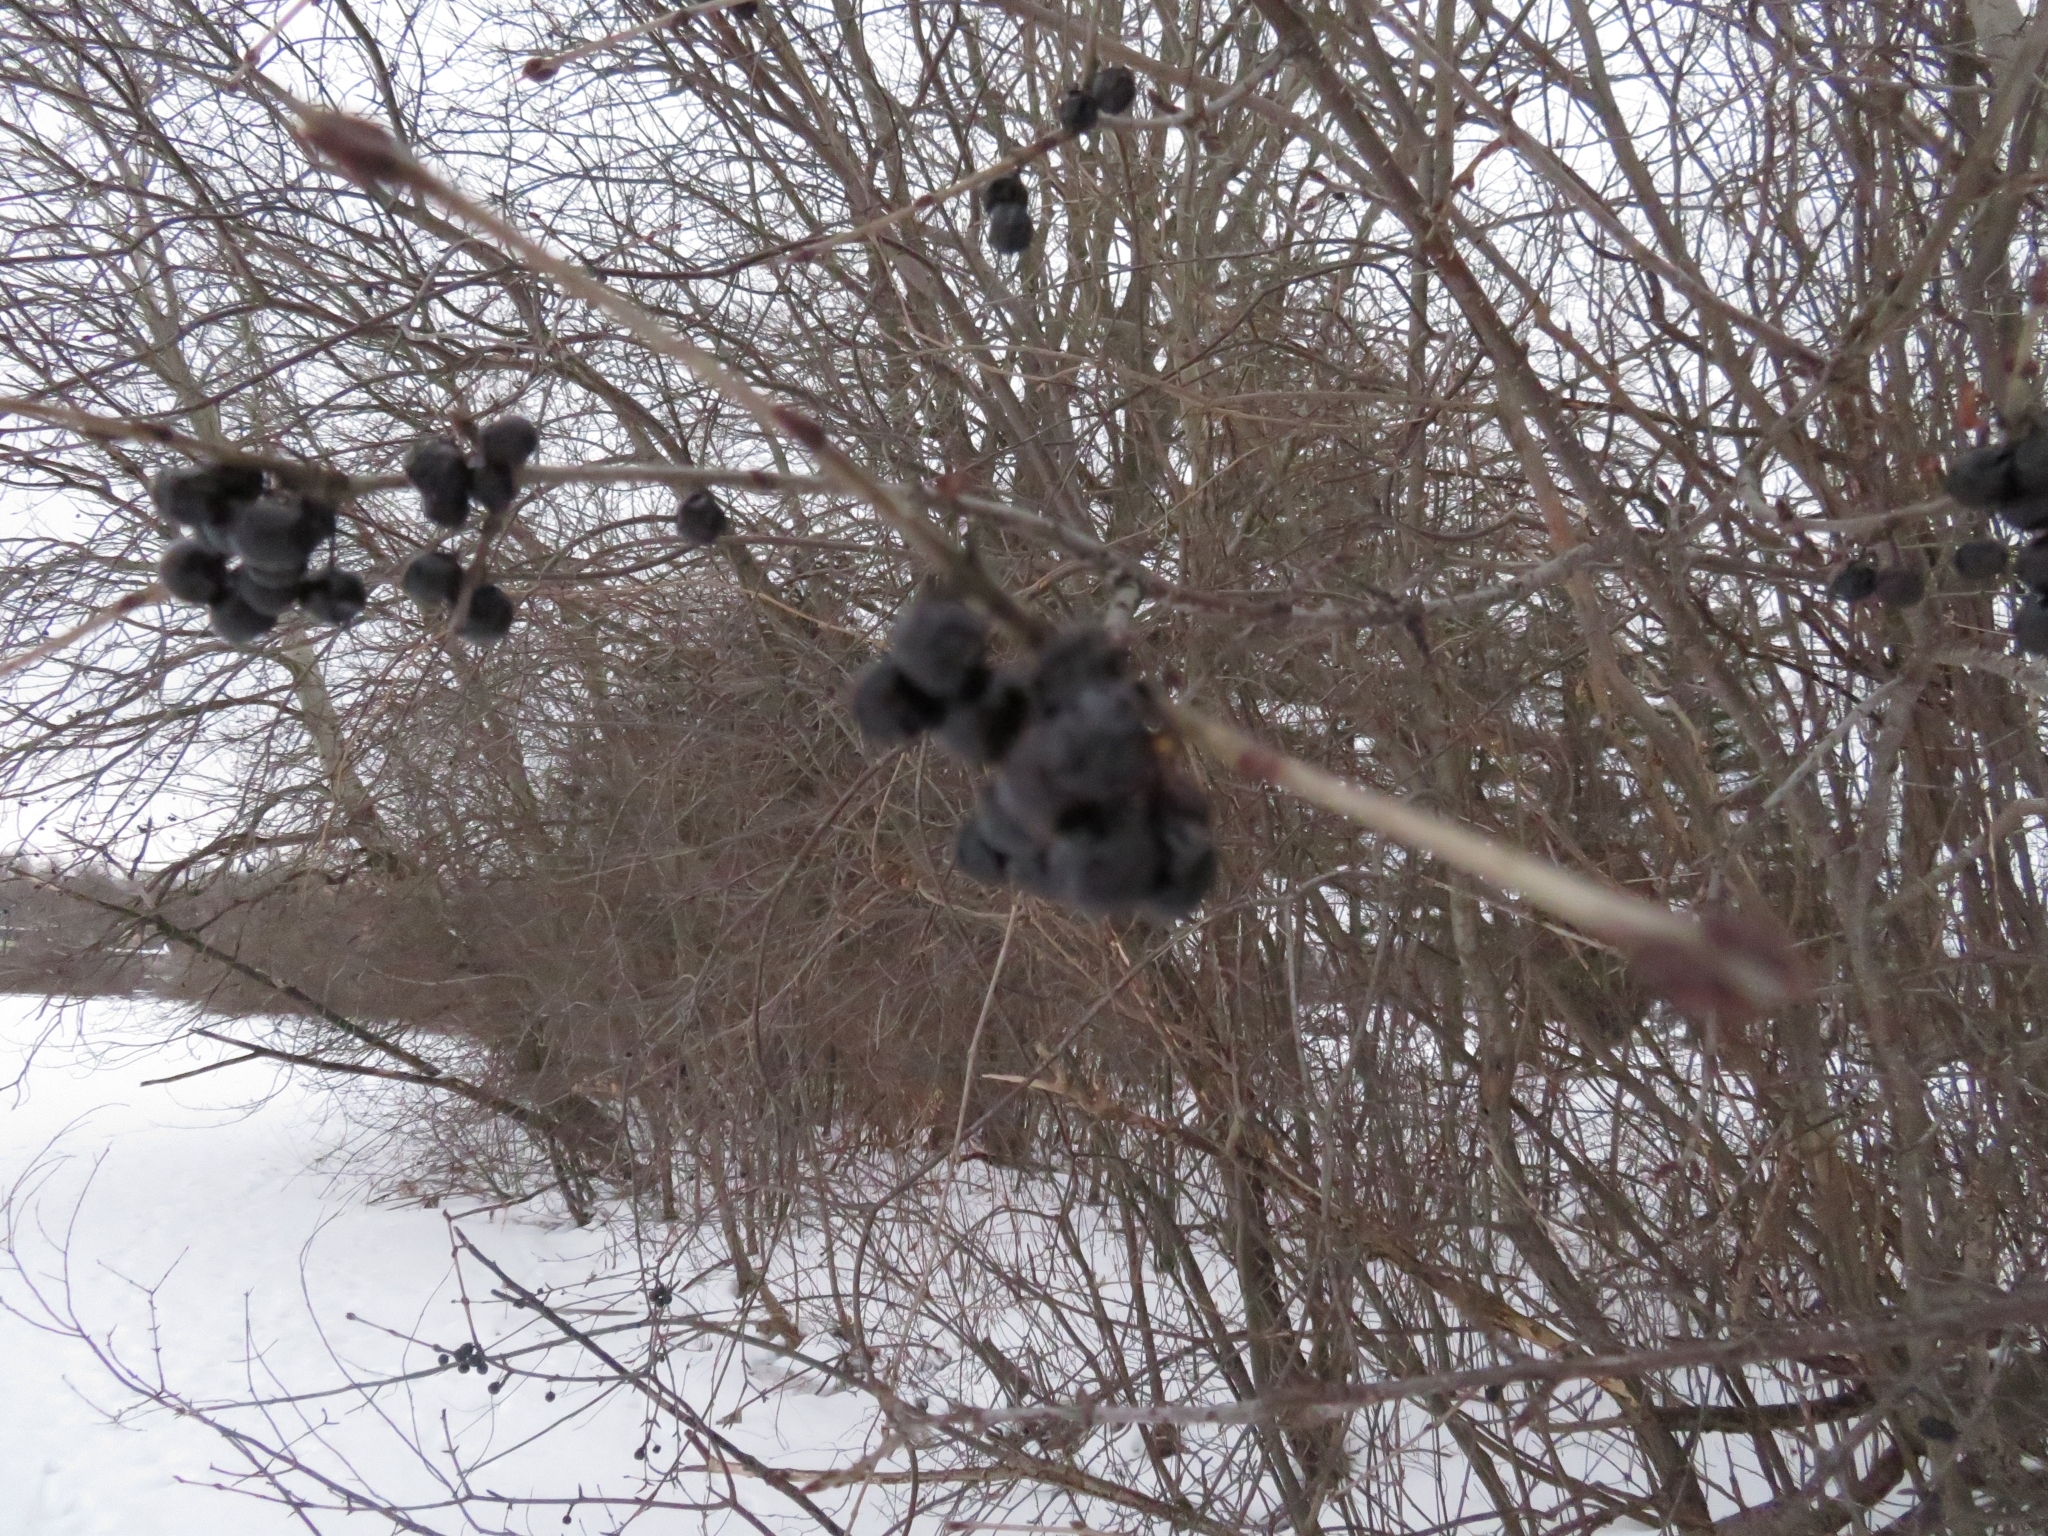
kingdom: Plantae
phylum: Tracheophyta
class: Magnoliopsida
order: Rosales
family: Rhamnaceae
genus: Rhamnus
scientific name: Rhamnus cathartica
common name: Common buckthorn
